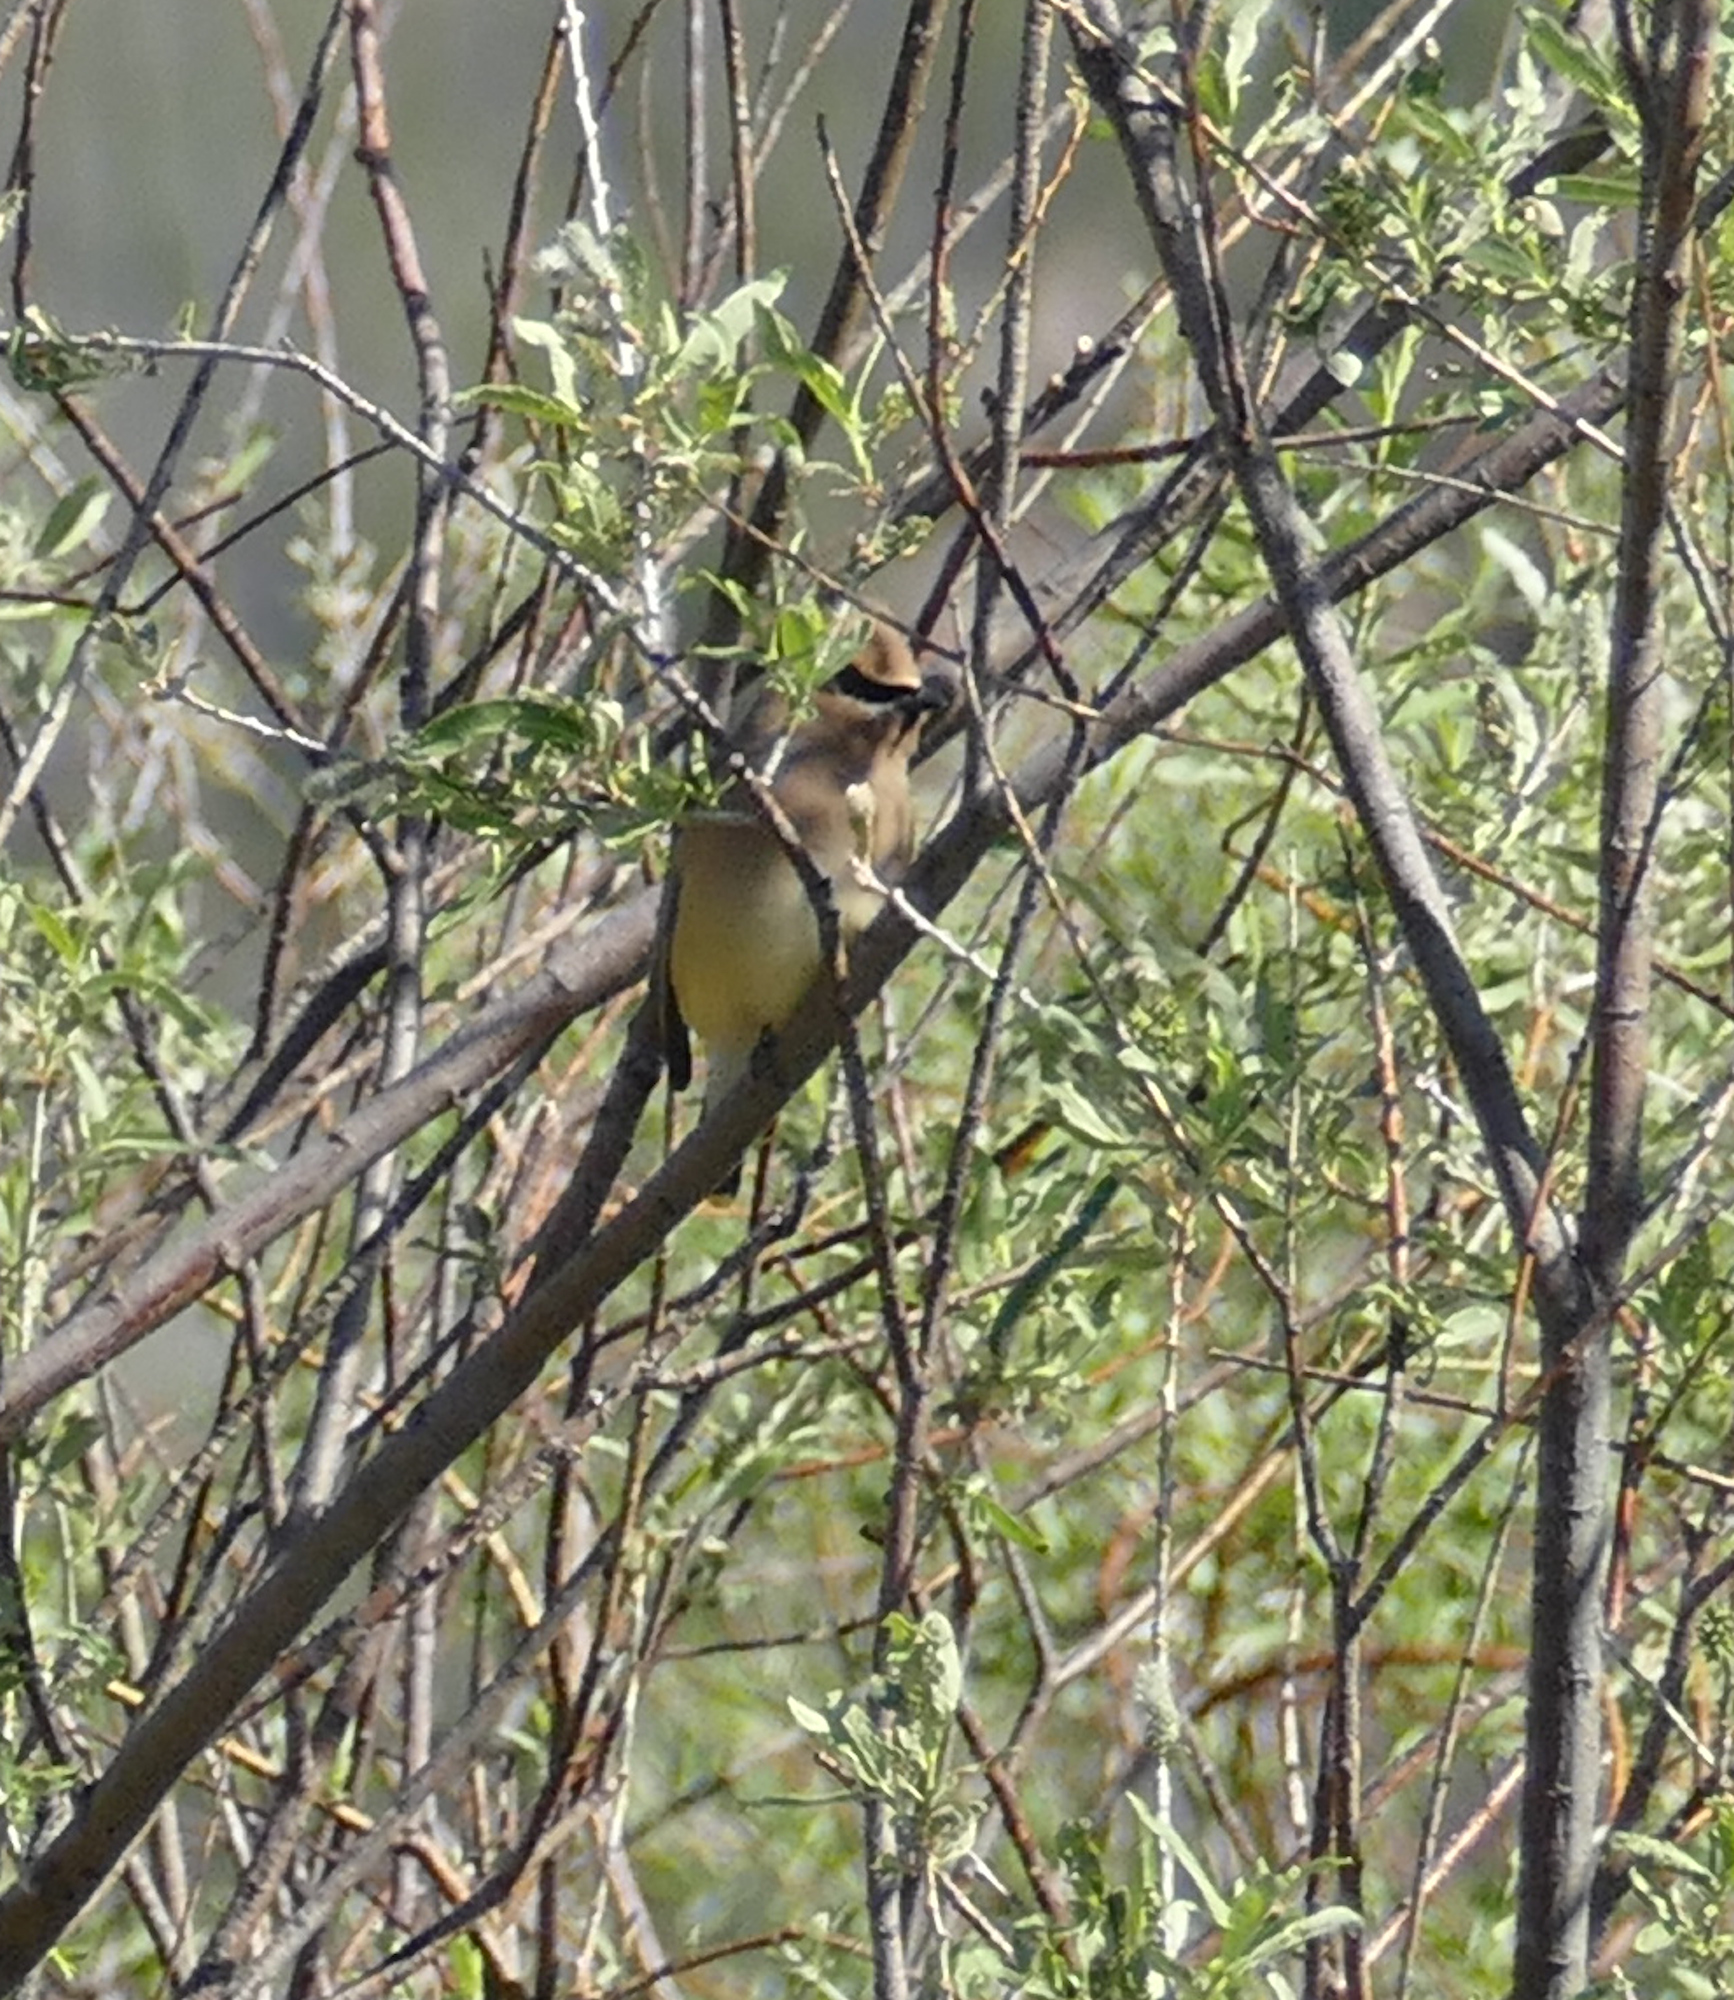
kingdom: Animalia
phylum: Chordata
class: Aves
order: Passeriformes
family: Bombycillidae
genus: Bombycilla
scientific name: Bombycilla cedrorum
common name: Cedar waxwing
